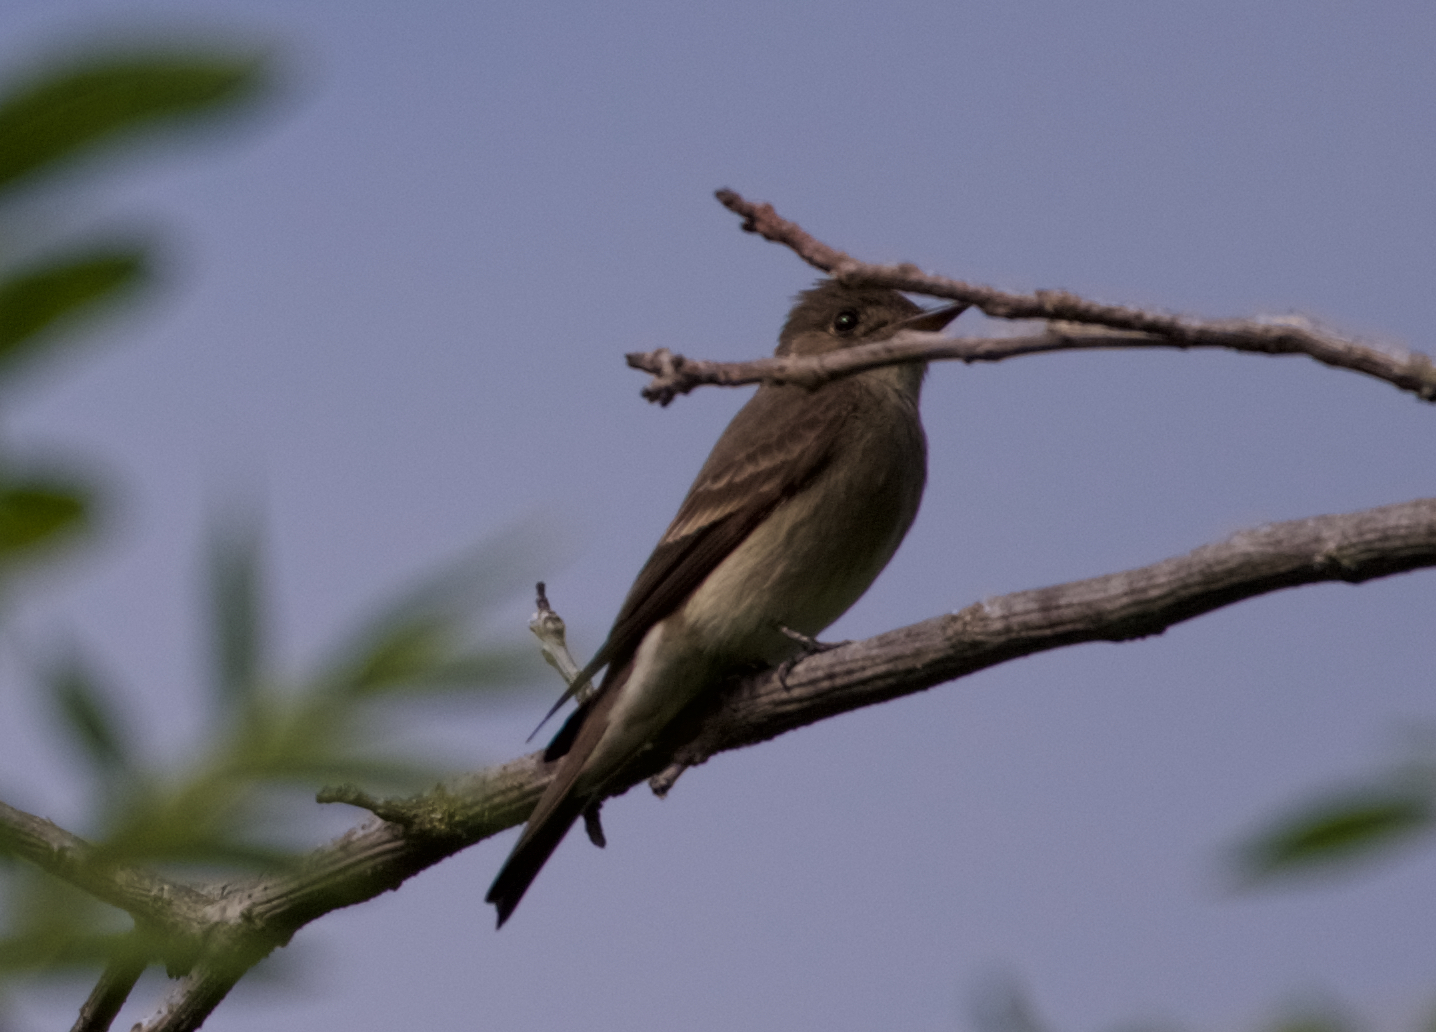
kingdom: Animalia
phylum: Chordata
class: Aves
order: Passeriformes
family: Tyrannidae
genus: Contopus
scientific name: Contopus cooperi
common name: Olive-sided flycatcher
